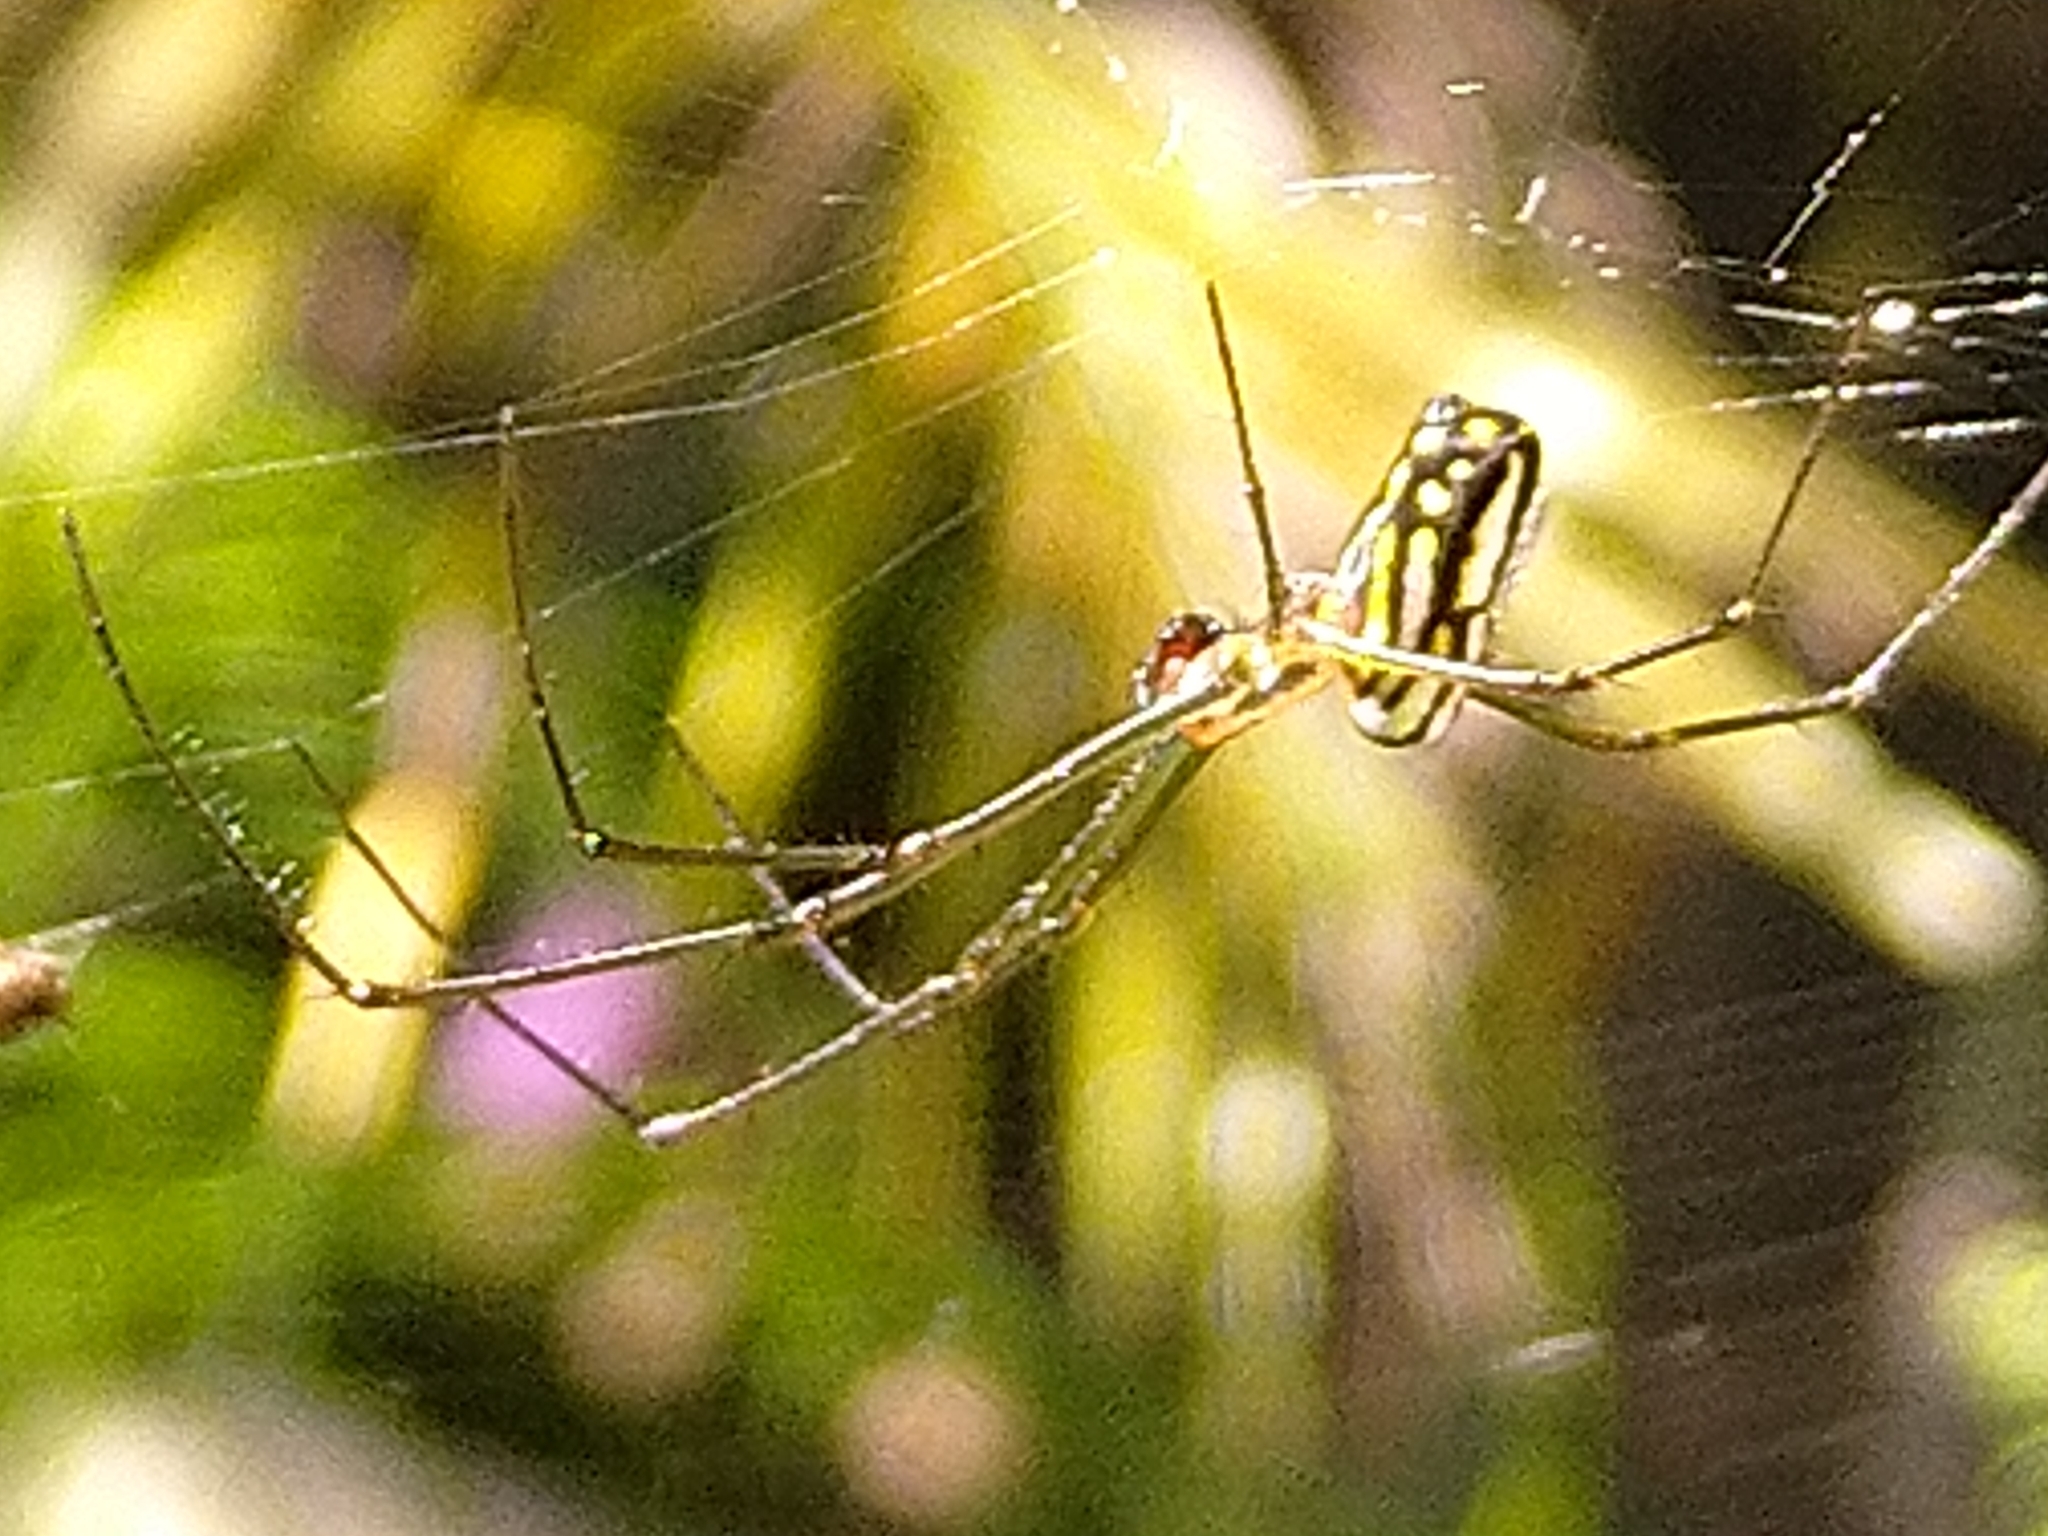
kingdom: Animalia
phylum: Arthropoda
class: Arachnida
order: Araneae
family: Tetragnathidae
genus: Leucauge
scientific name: Leucauge argyrobapta
